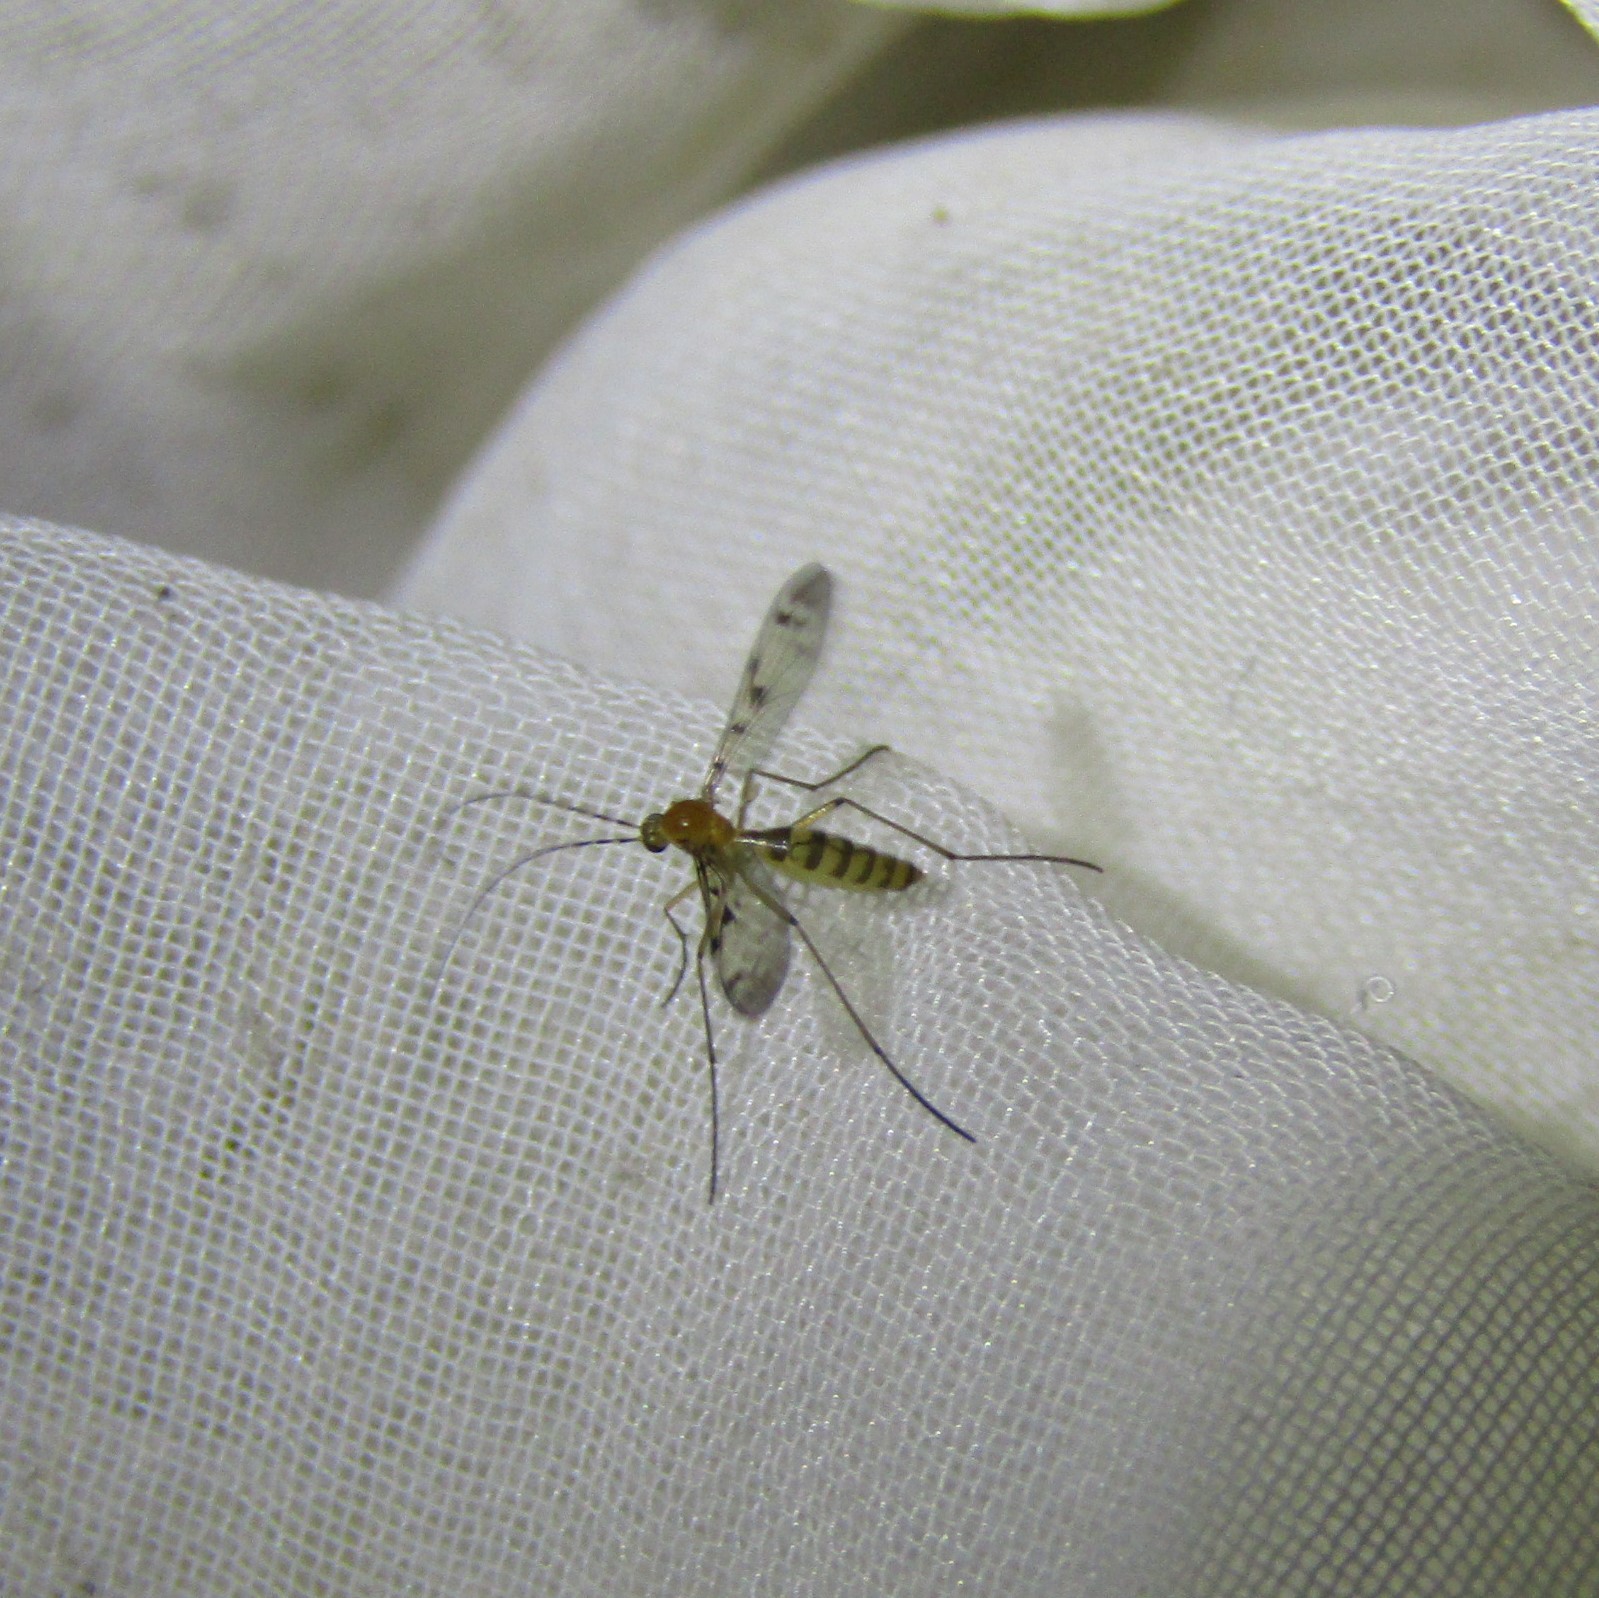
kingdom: Animalia
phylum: Arthropoda
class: Insecta
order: Diptera
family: Keroplatidae
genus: Chiasmoneura
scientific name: Chiasmoneura milligani
